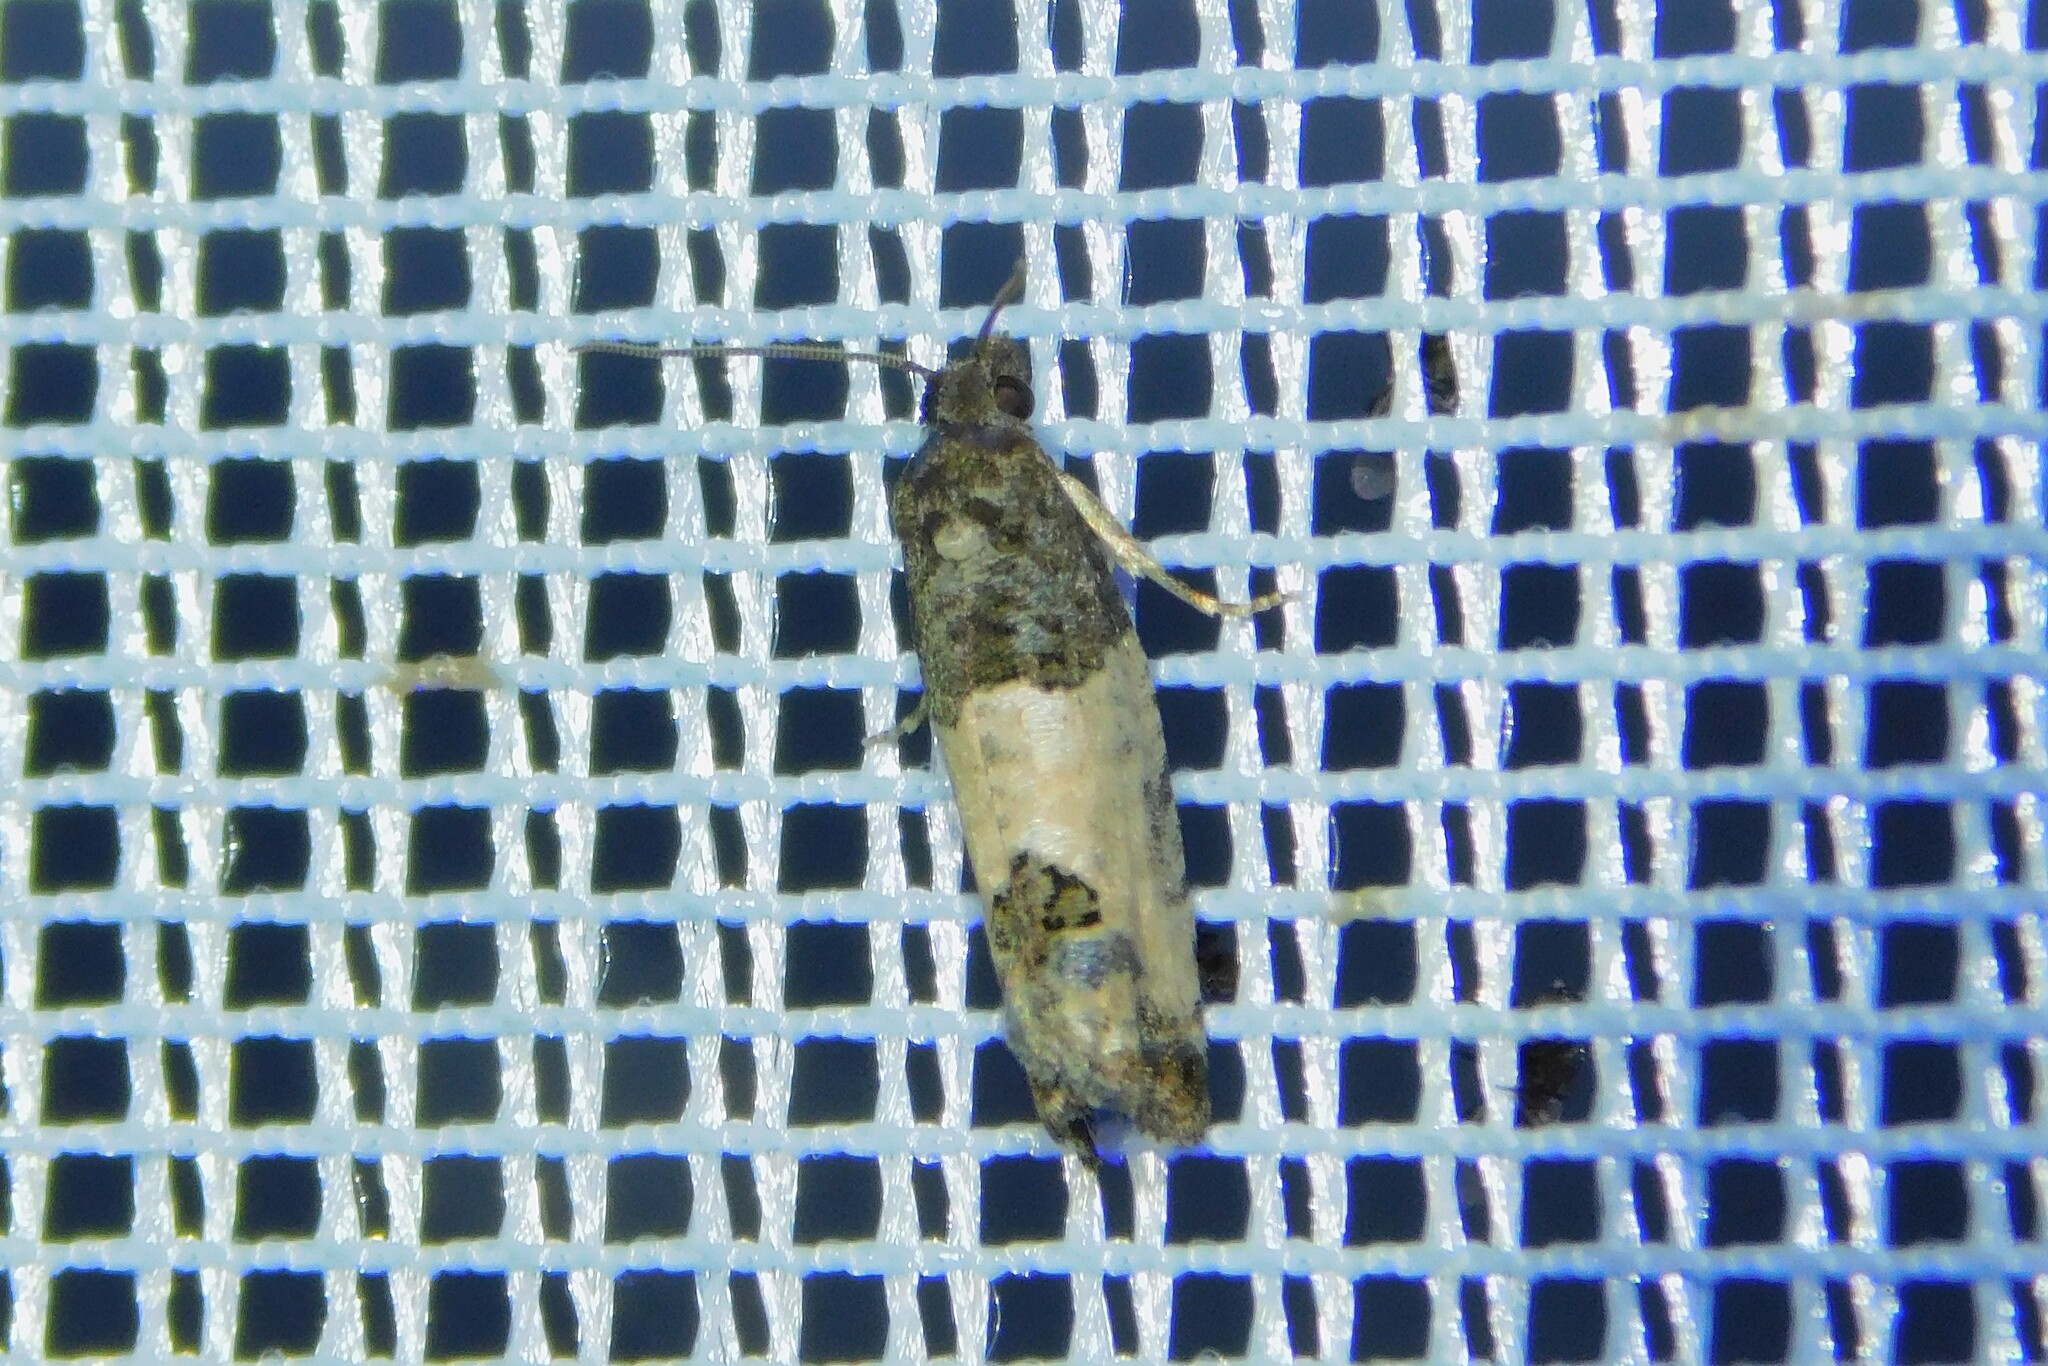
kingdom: Animalia
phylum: Arthropoda
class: Insecta
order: Lepidoptera
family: Tortricidae
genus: Spilonota
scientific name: Spilonota ocellana
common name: Bud moth
